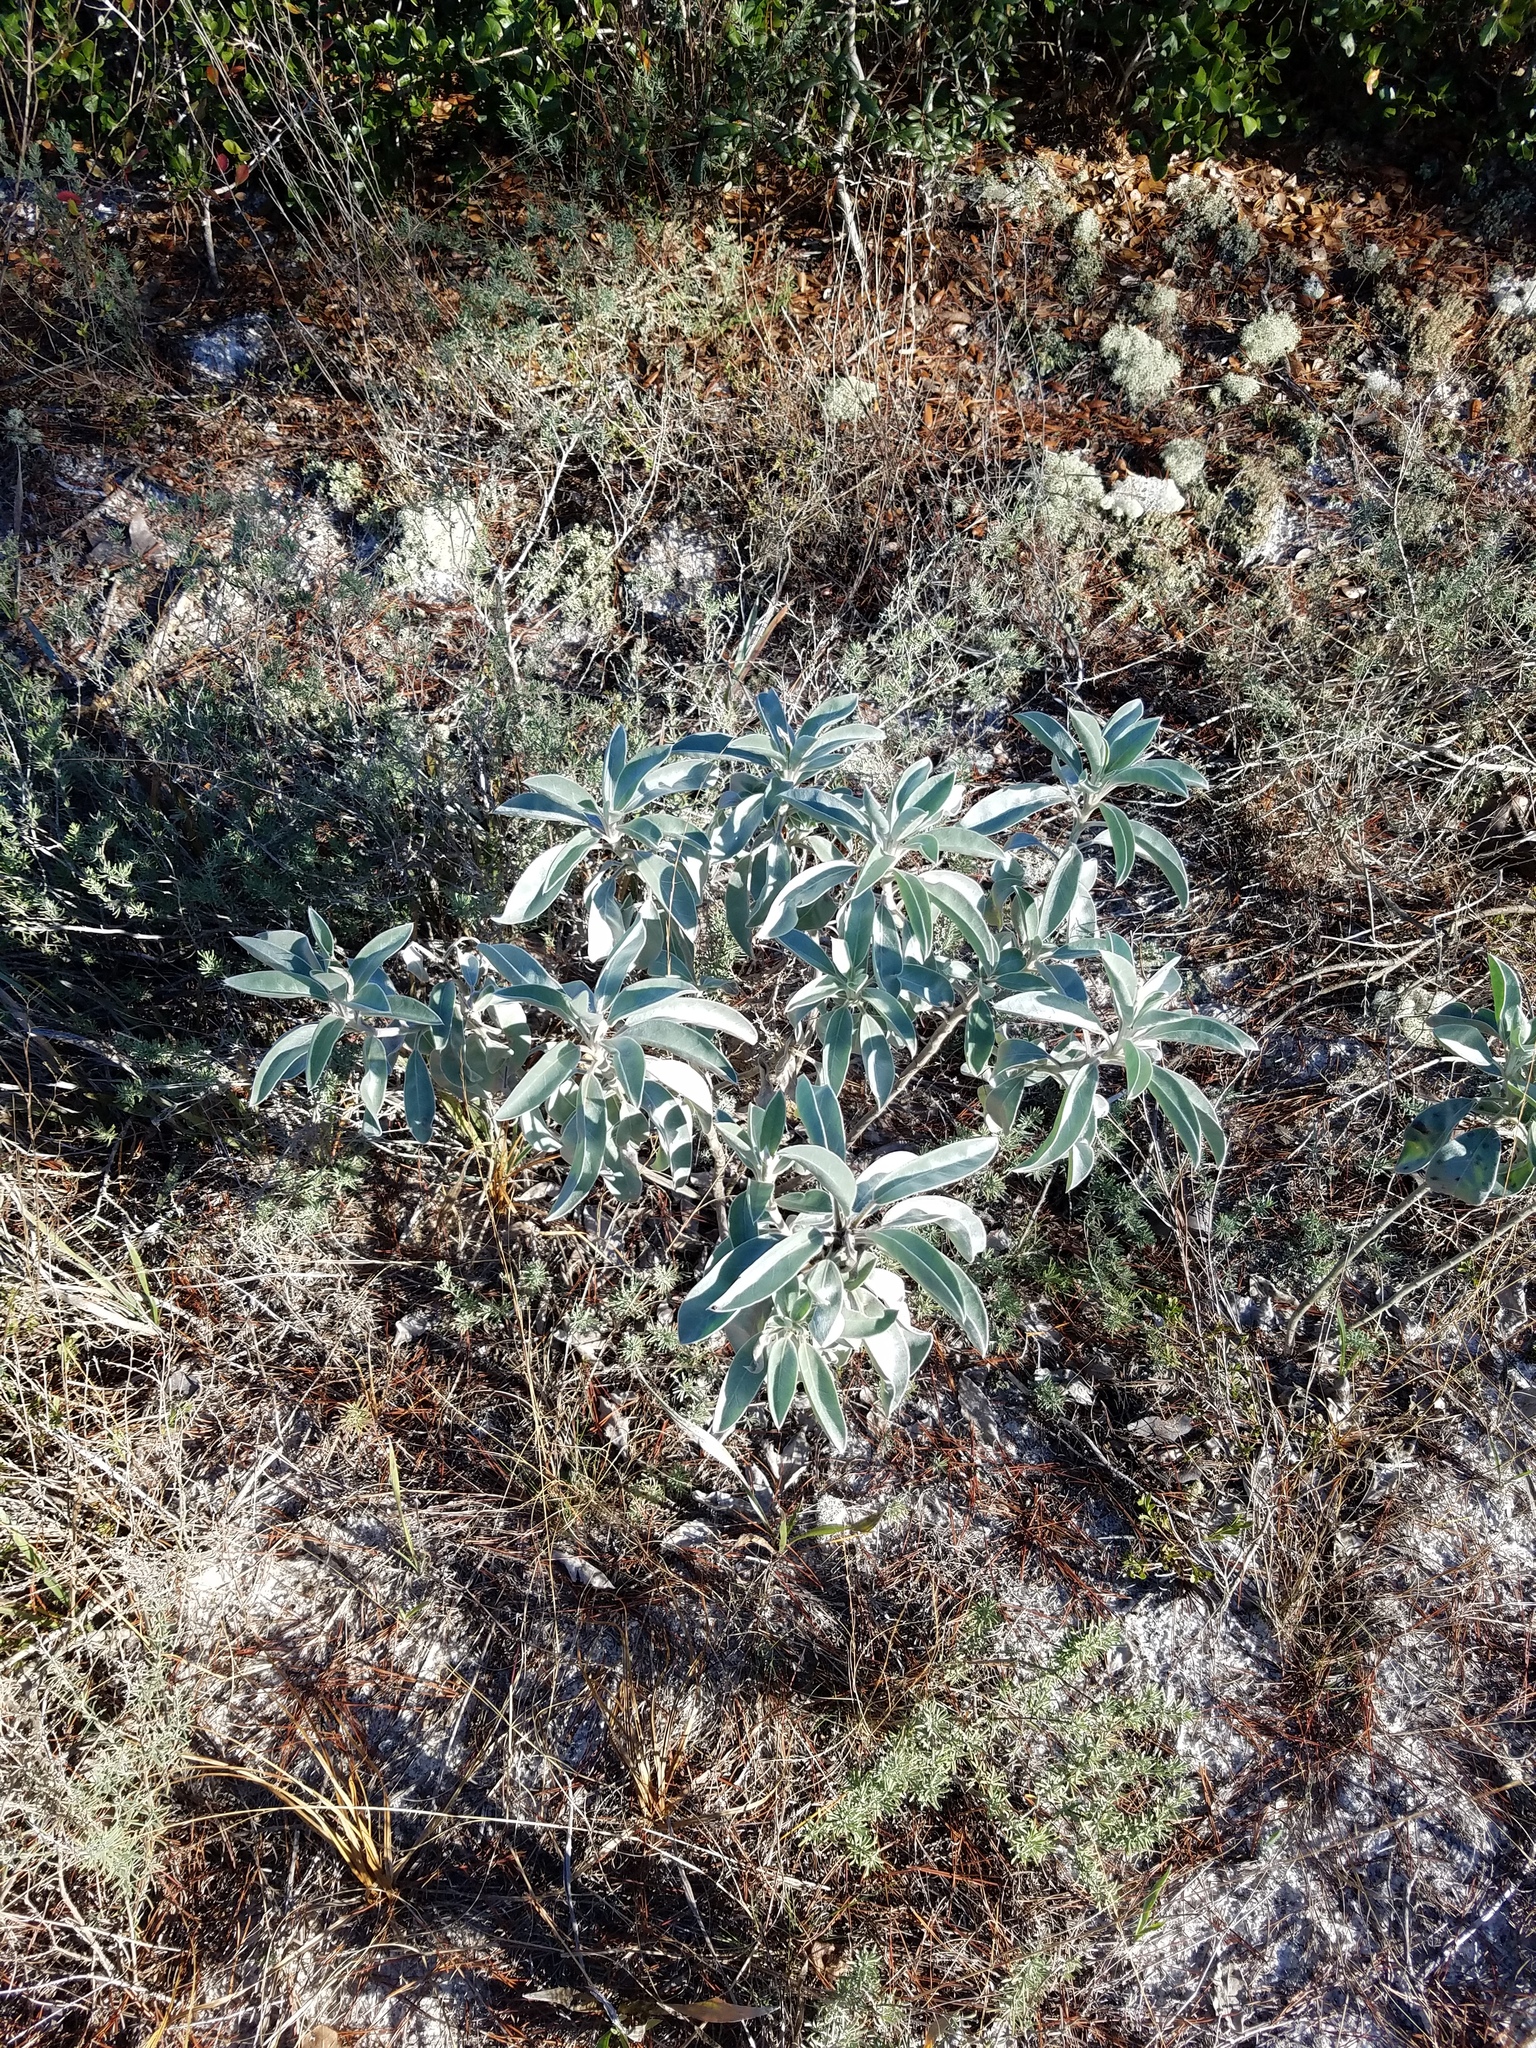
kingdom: Plantae
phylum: Tracheophyta
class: Magnoliopsida
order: Fabales
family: Fabaceae
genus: Lupinus
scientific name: Lupinus westianus
